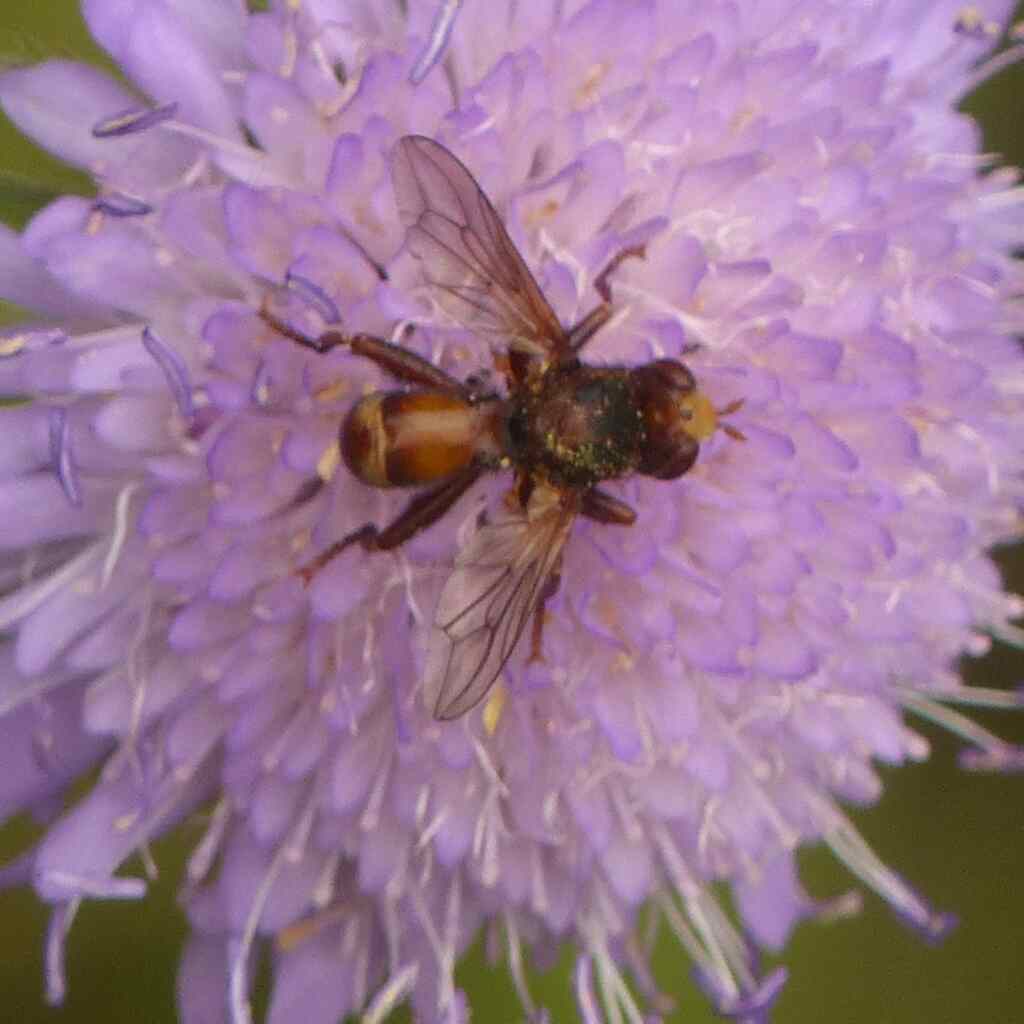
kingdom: Animalia
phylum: Arthropoda
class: Insecta
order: Diptera
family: Conopidae
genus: Sicus
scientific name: Sicus ferrugineus
